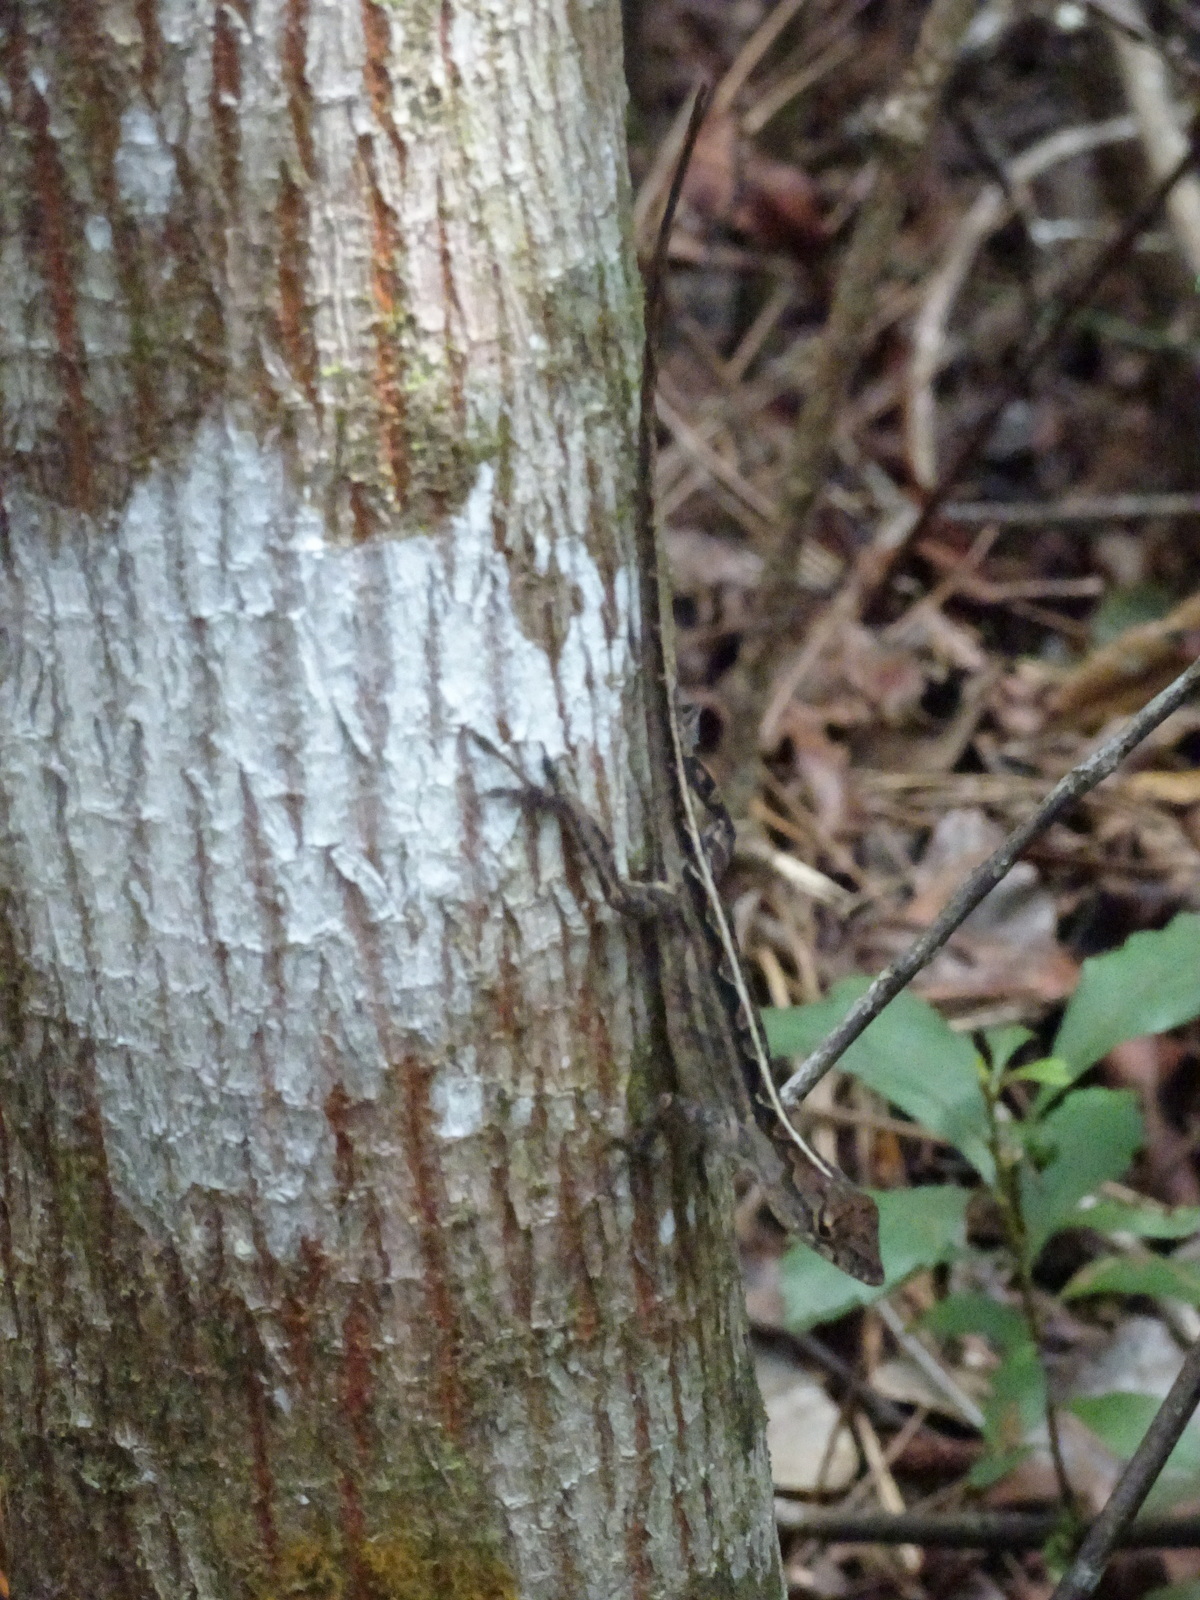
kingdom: Animalia
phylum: Chordata
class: Squamata
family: Dactyloidae
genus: Anolis
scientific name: Anolis sagrei
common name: Brown anole
